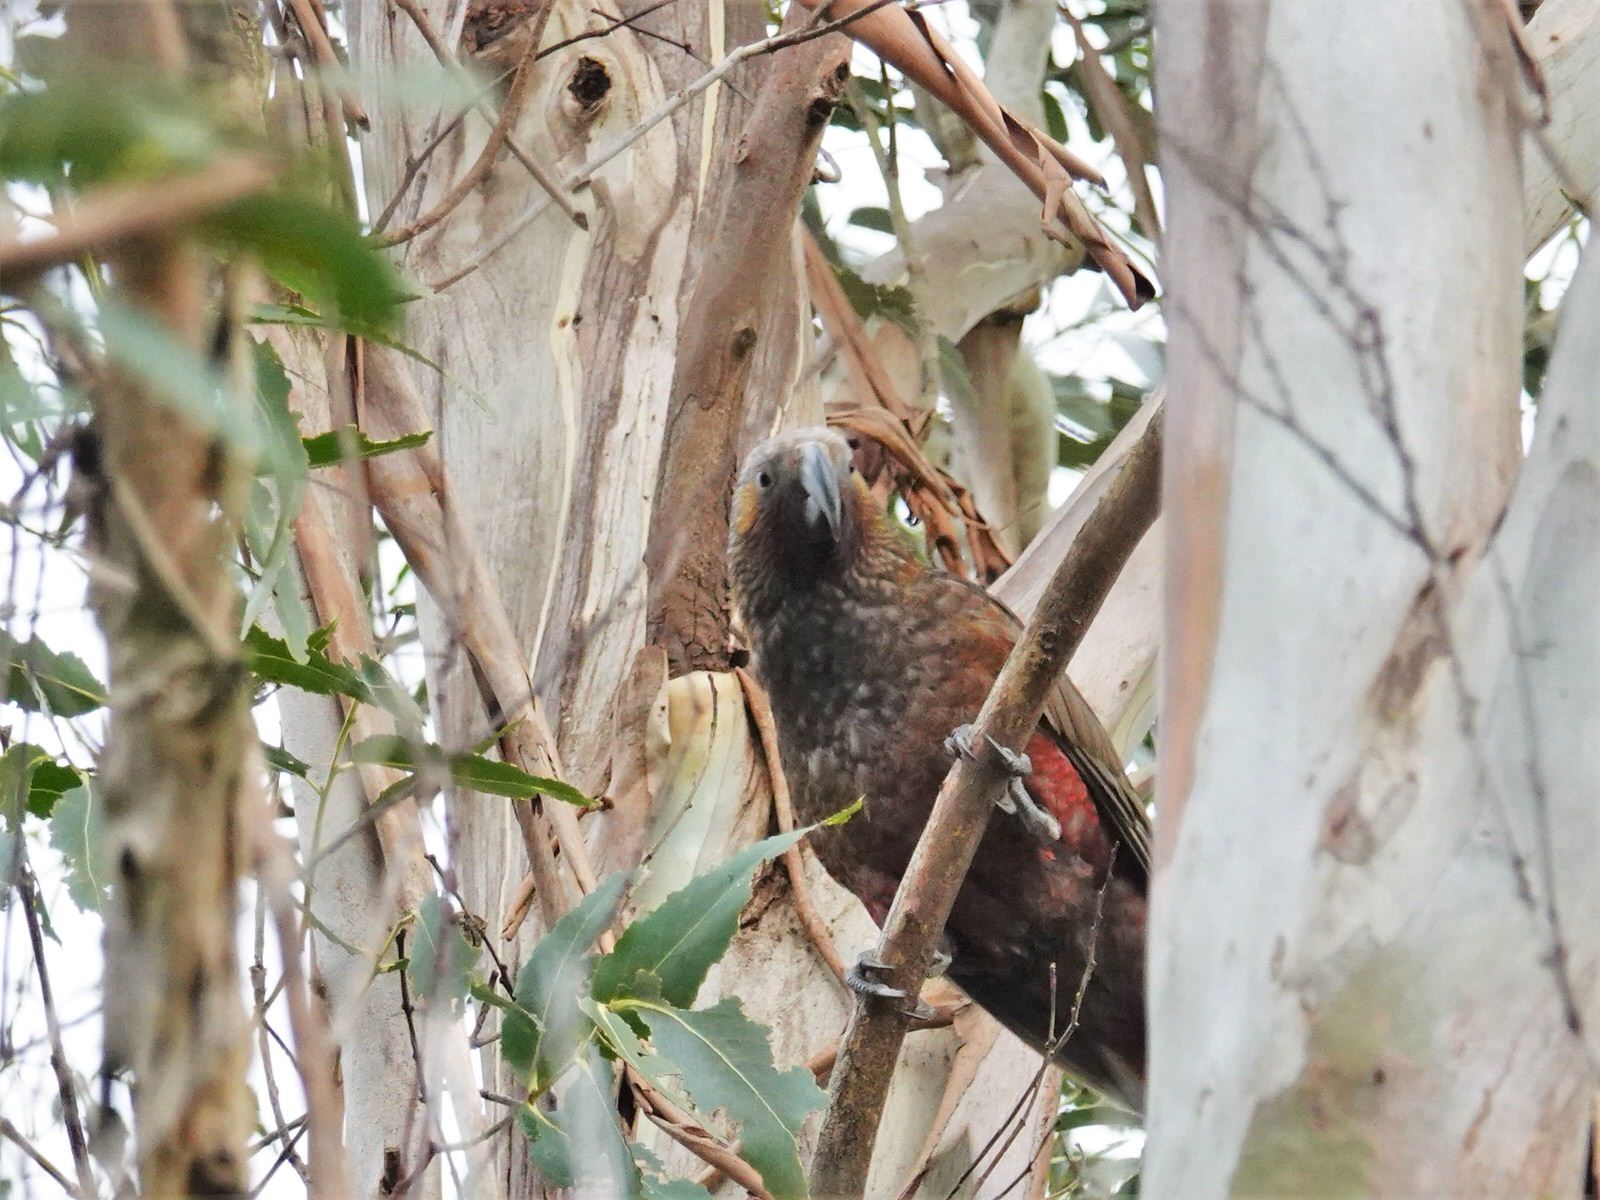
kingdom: Animalia
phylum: Chordata
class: Aves
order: Psittaciformes
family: Psittacidae
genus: Nestor
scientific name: Nestor meridionalis
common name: New zealand kaka
